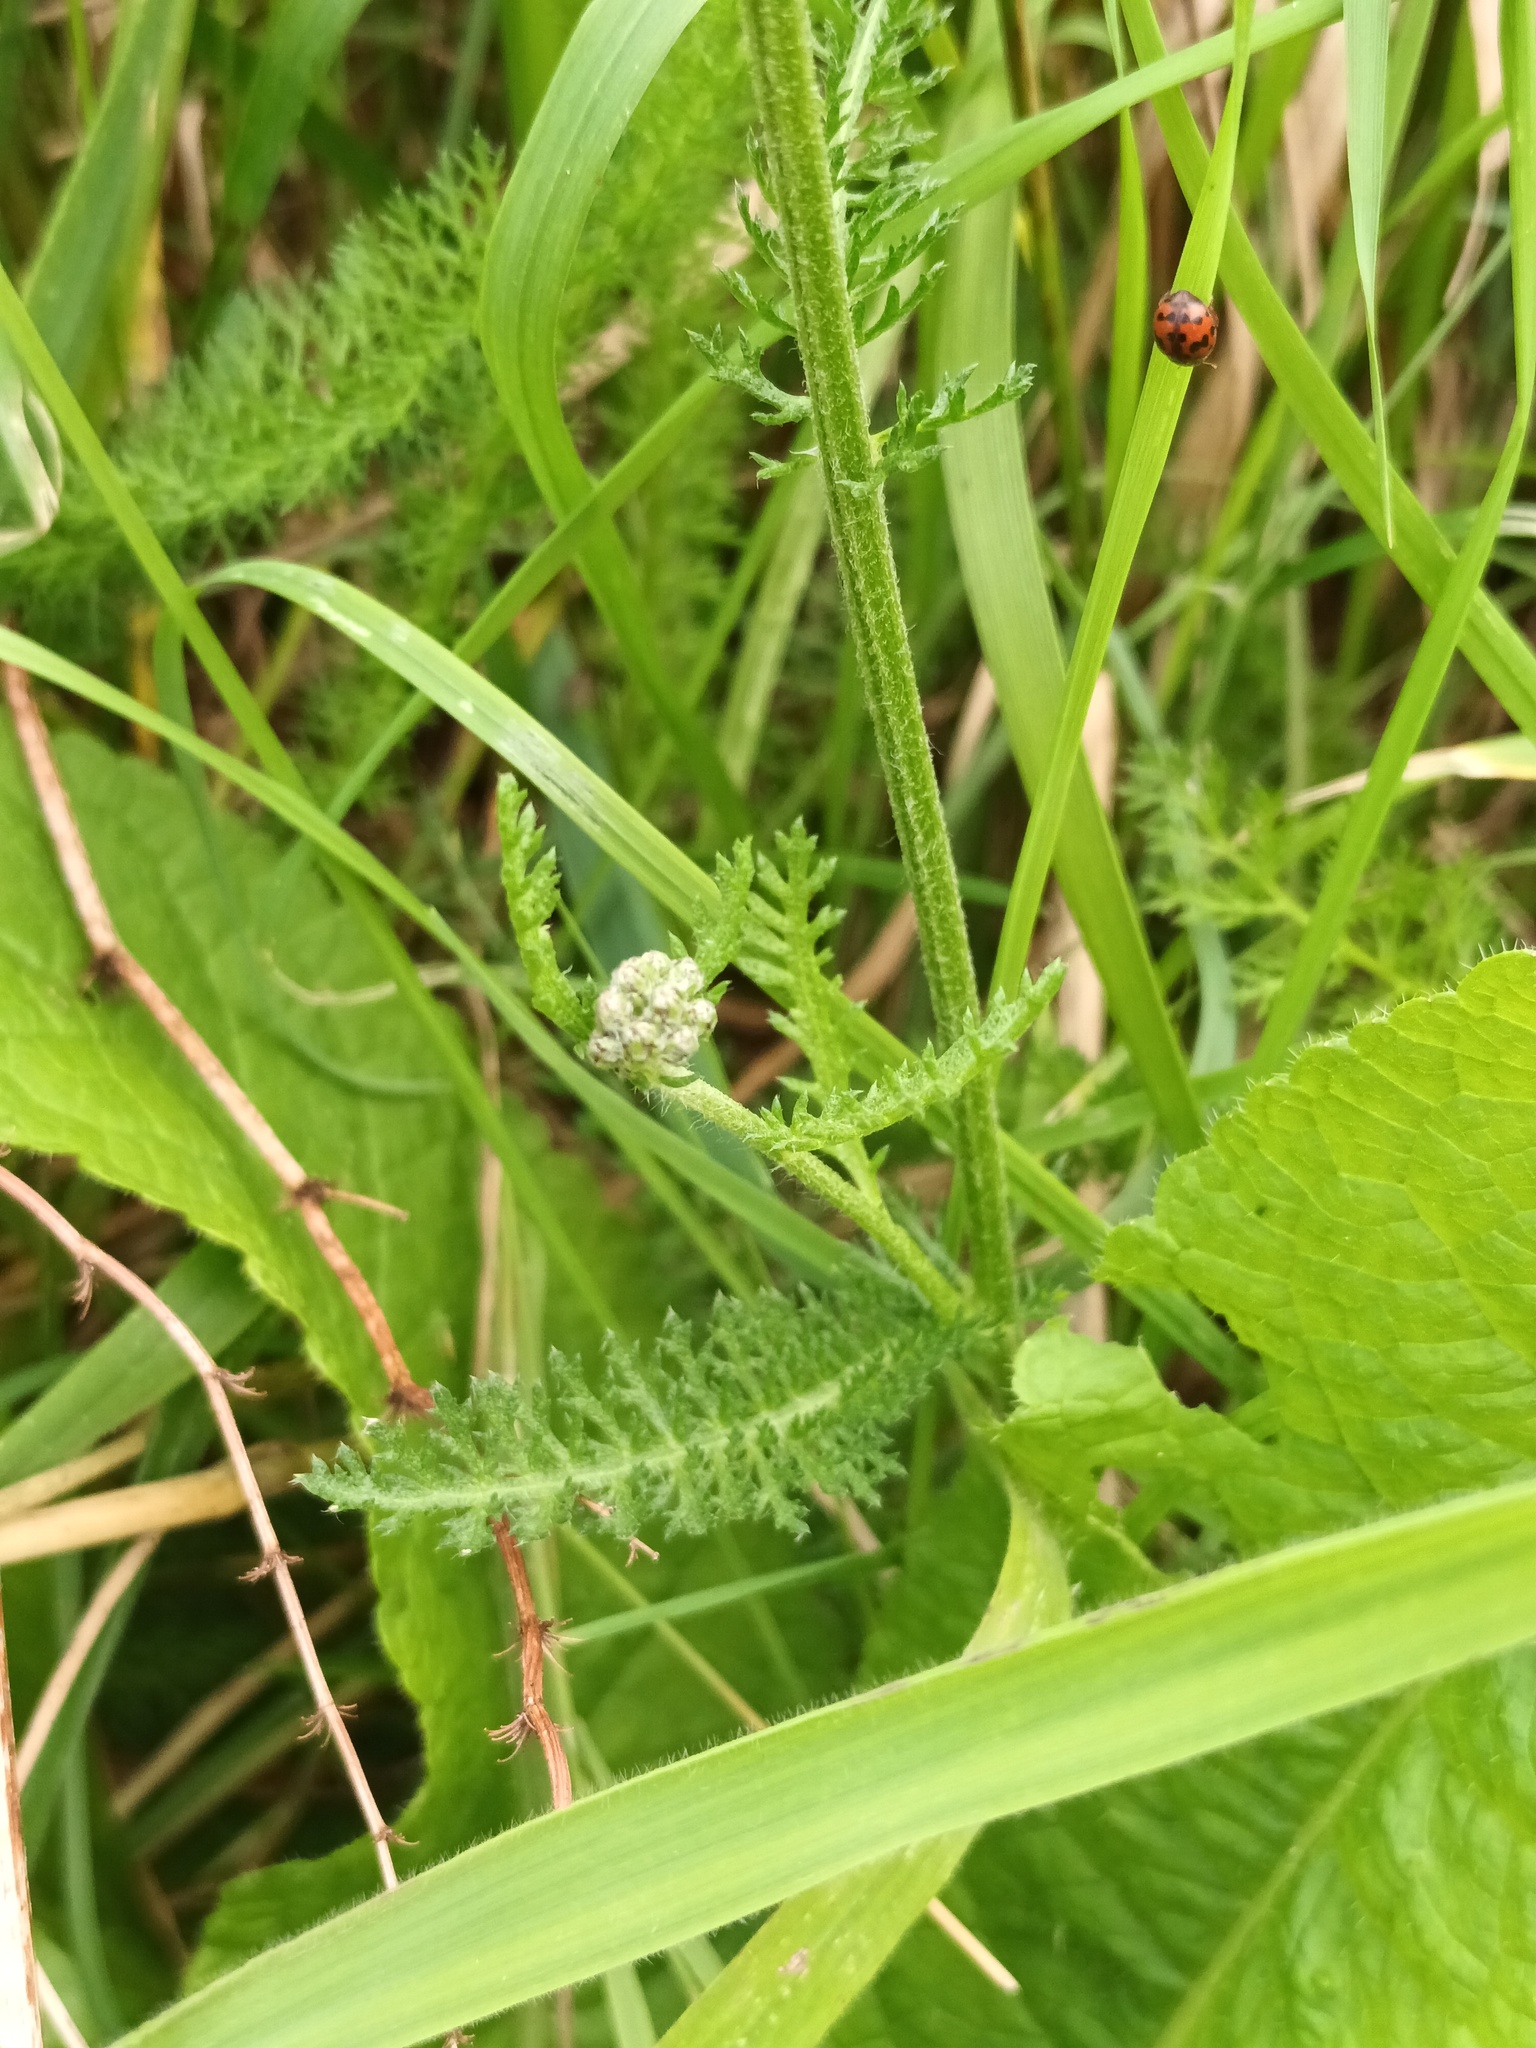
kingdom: Plantae
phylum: Tracheophyta
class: Magnoliopsida
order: Asterales
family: Asteraceae
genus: Achillea
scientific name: Achillea millefolium
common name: Yarrow
